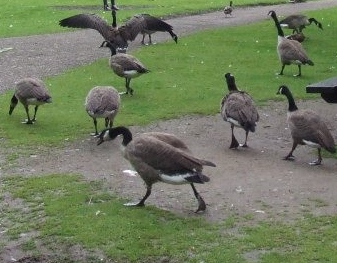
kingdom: Animalia
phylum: Chordata
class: Aves
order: Anseriformes
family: Anatidae
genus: Branta
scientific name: Branta canadensis
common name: Canada goose
